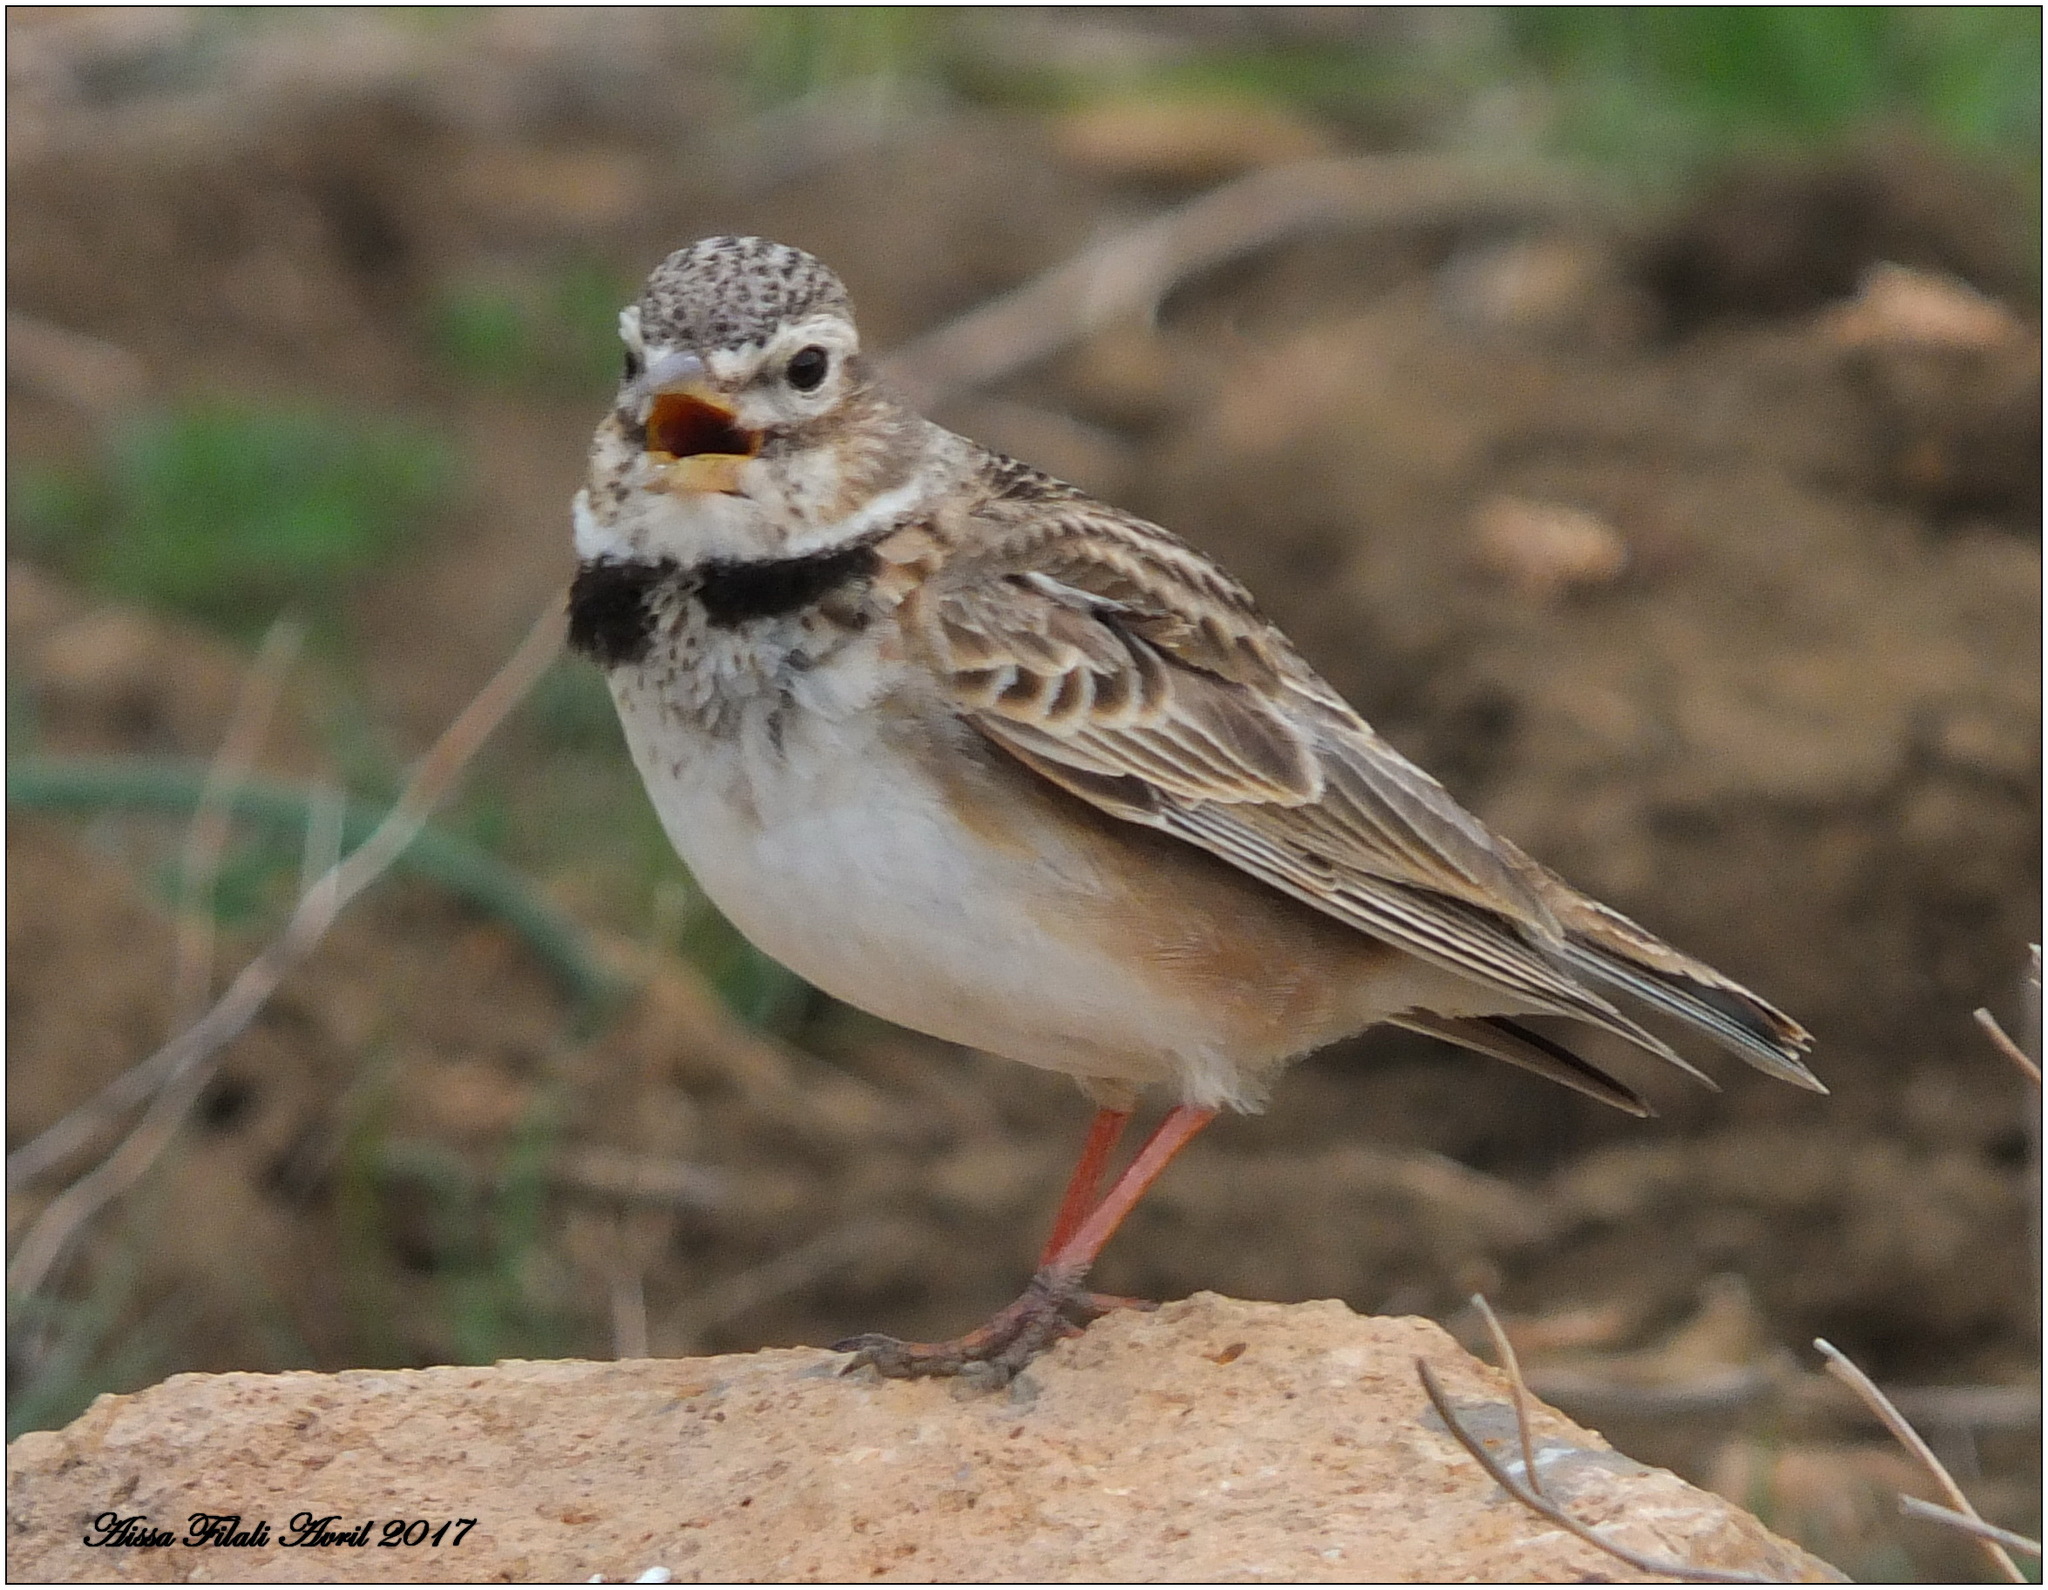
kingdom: Animalia
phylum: Chordata
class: Aves
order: Passeriformes
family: Alaudidae
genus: Melanocorypha
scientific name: Melanocorypha calandra
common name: Calandra lark
